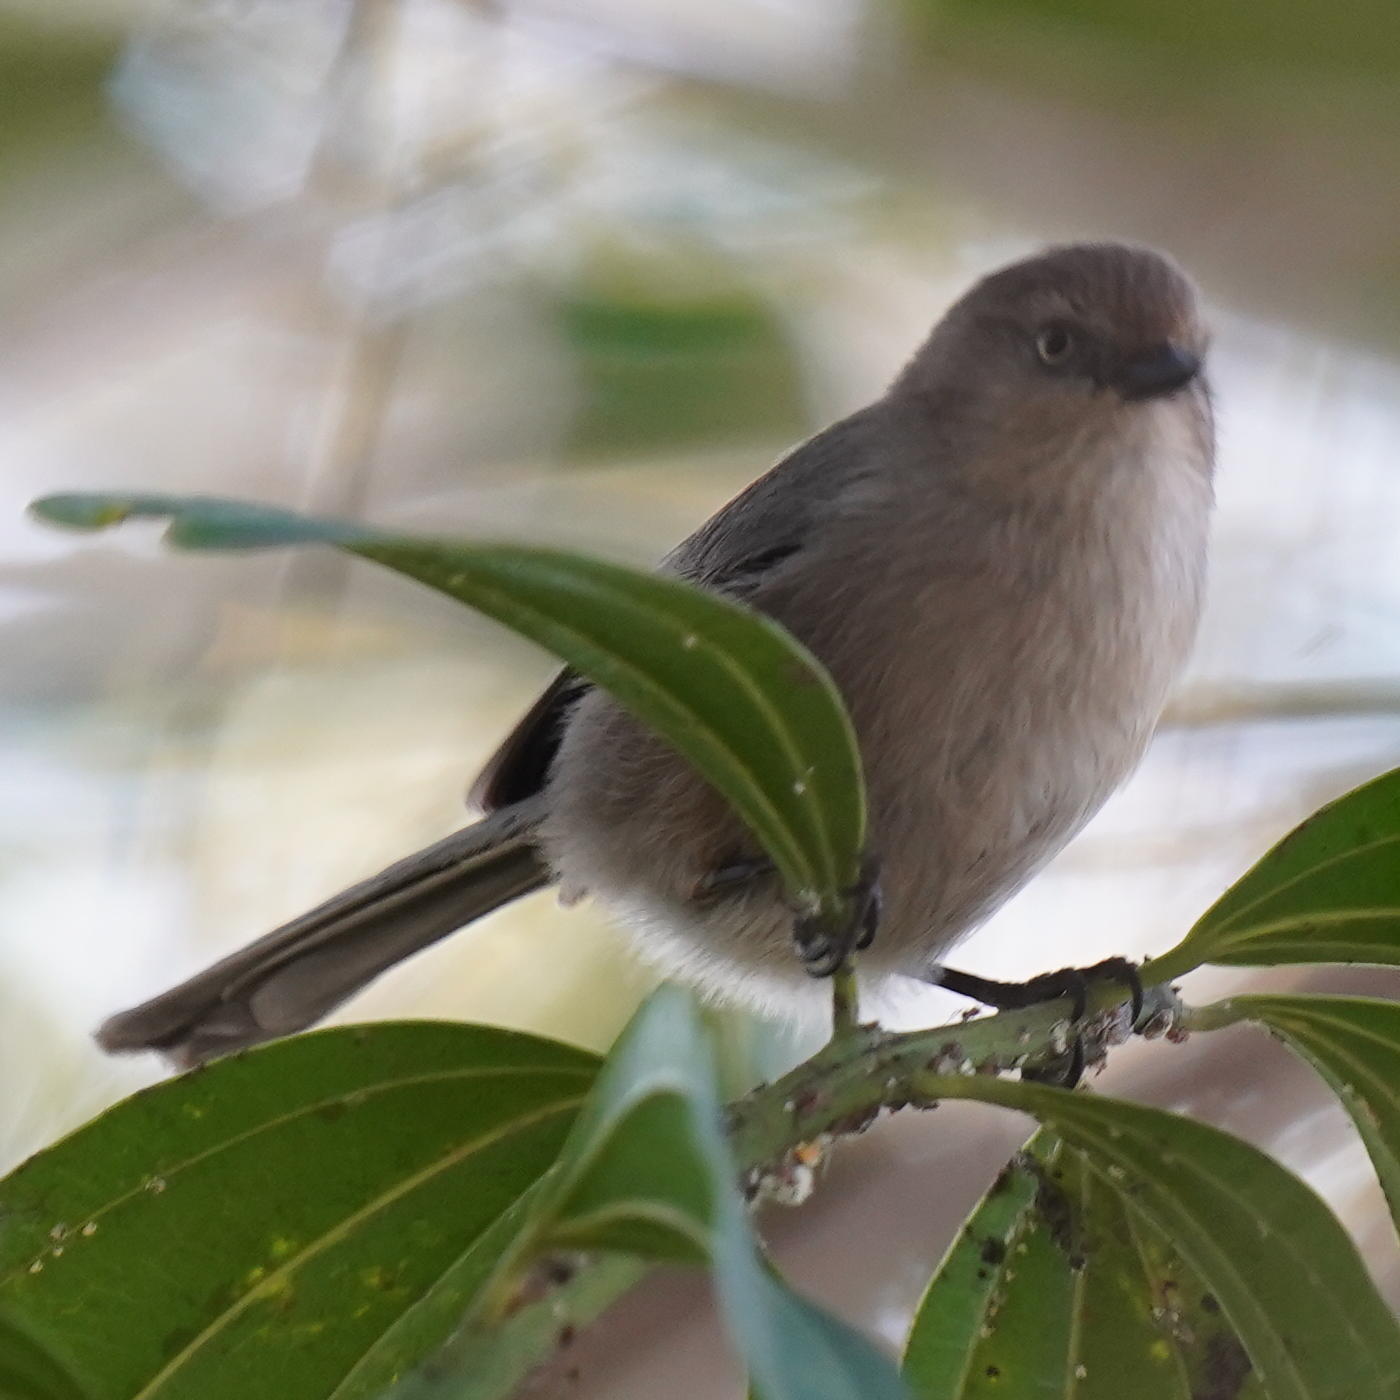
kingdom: Animalia
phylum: Chordata
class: Aves
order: Passeriformes
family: Aegithalidae
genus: Psaltriparus
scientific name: Psaltriparus minimus
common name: American bushtit
